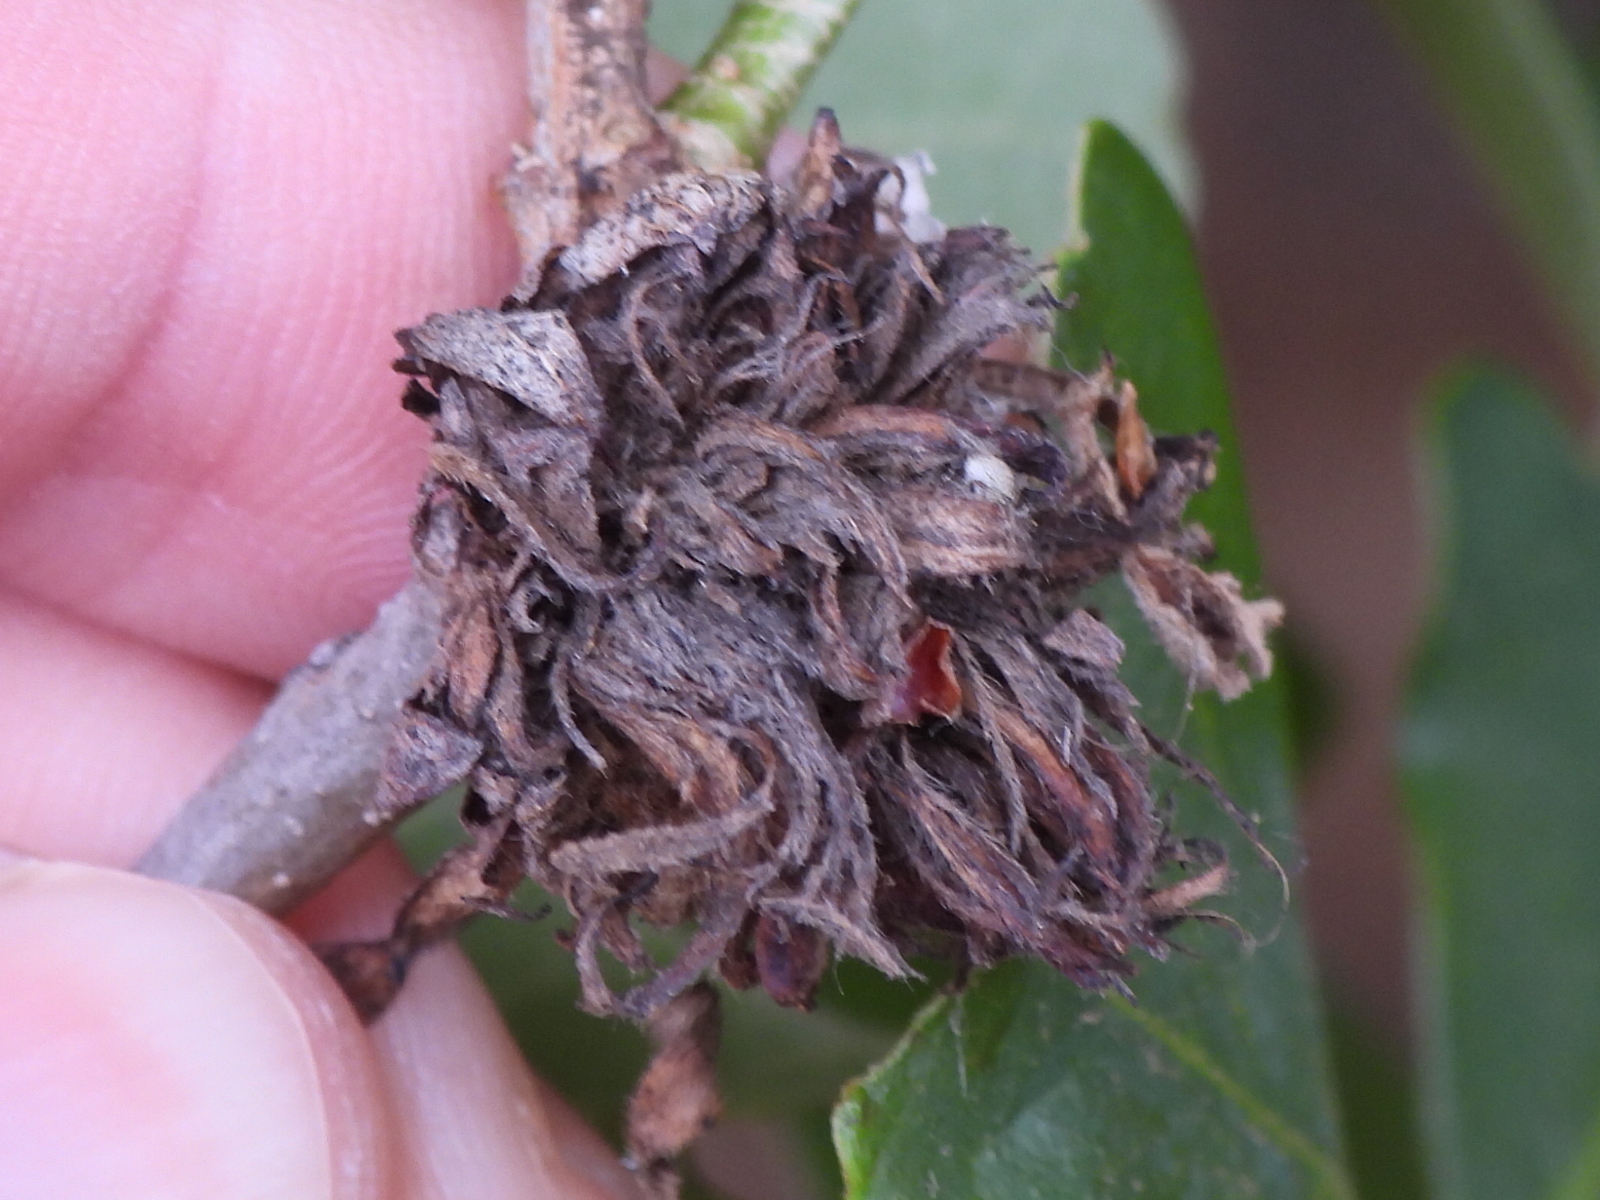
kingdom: Animalia
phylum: Arthropoda
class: Insecta
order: Hymenoptera
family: Cynipidae
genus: Andricus
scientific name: Andricus
